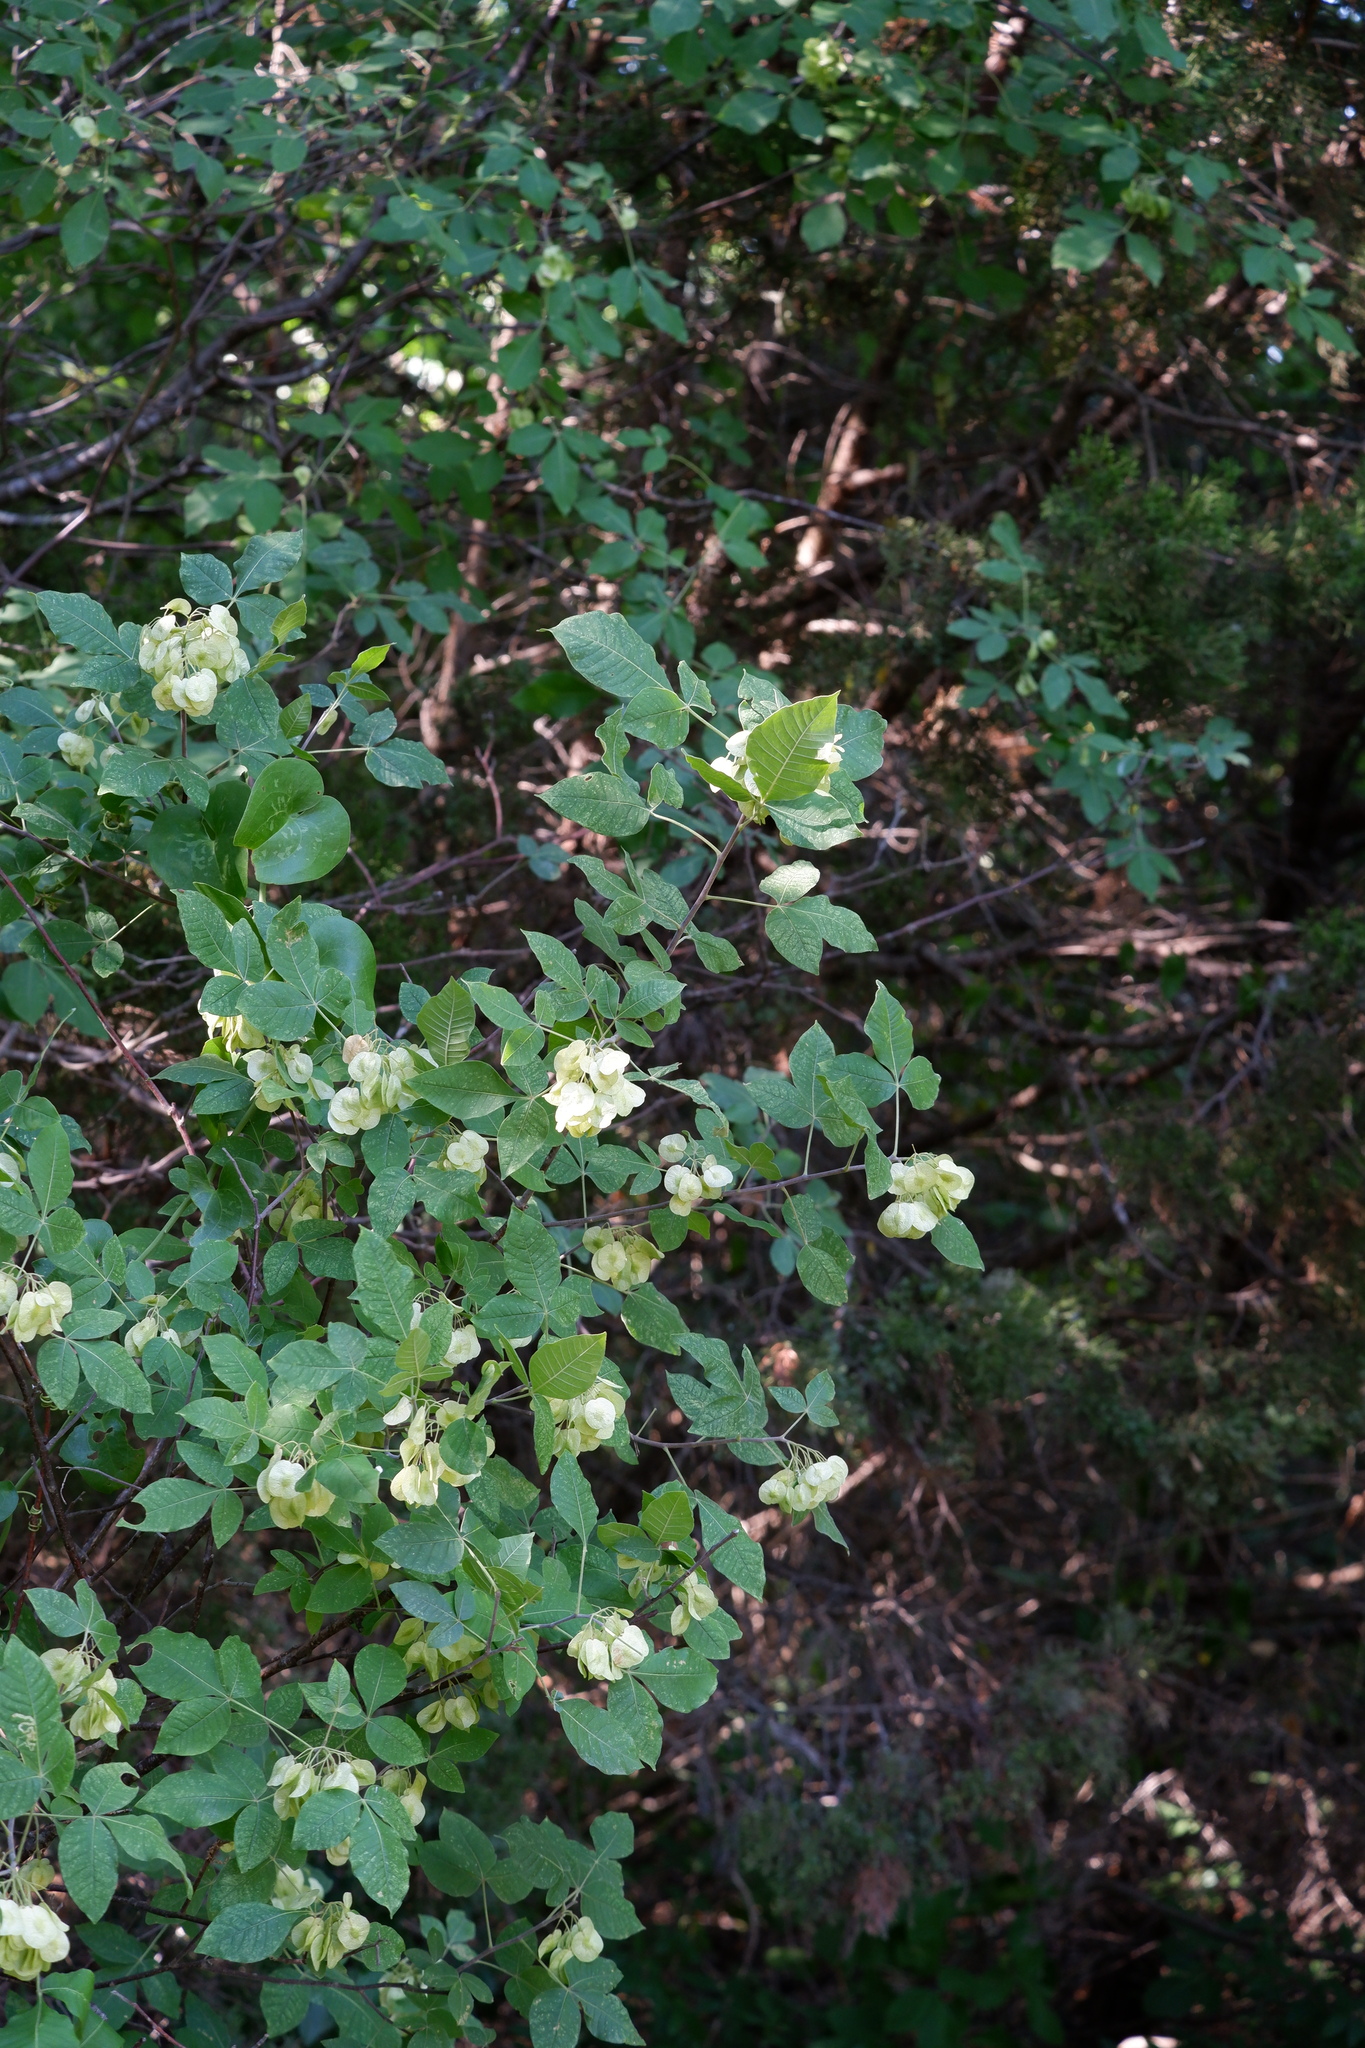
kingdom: Plantae
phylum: Tracheophyta
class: Magnoliopsida
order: Sapindales
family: Rutaceae
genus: Ptelea
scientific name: Ptelea trifoliata
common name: Common hop-tree
